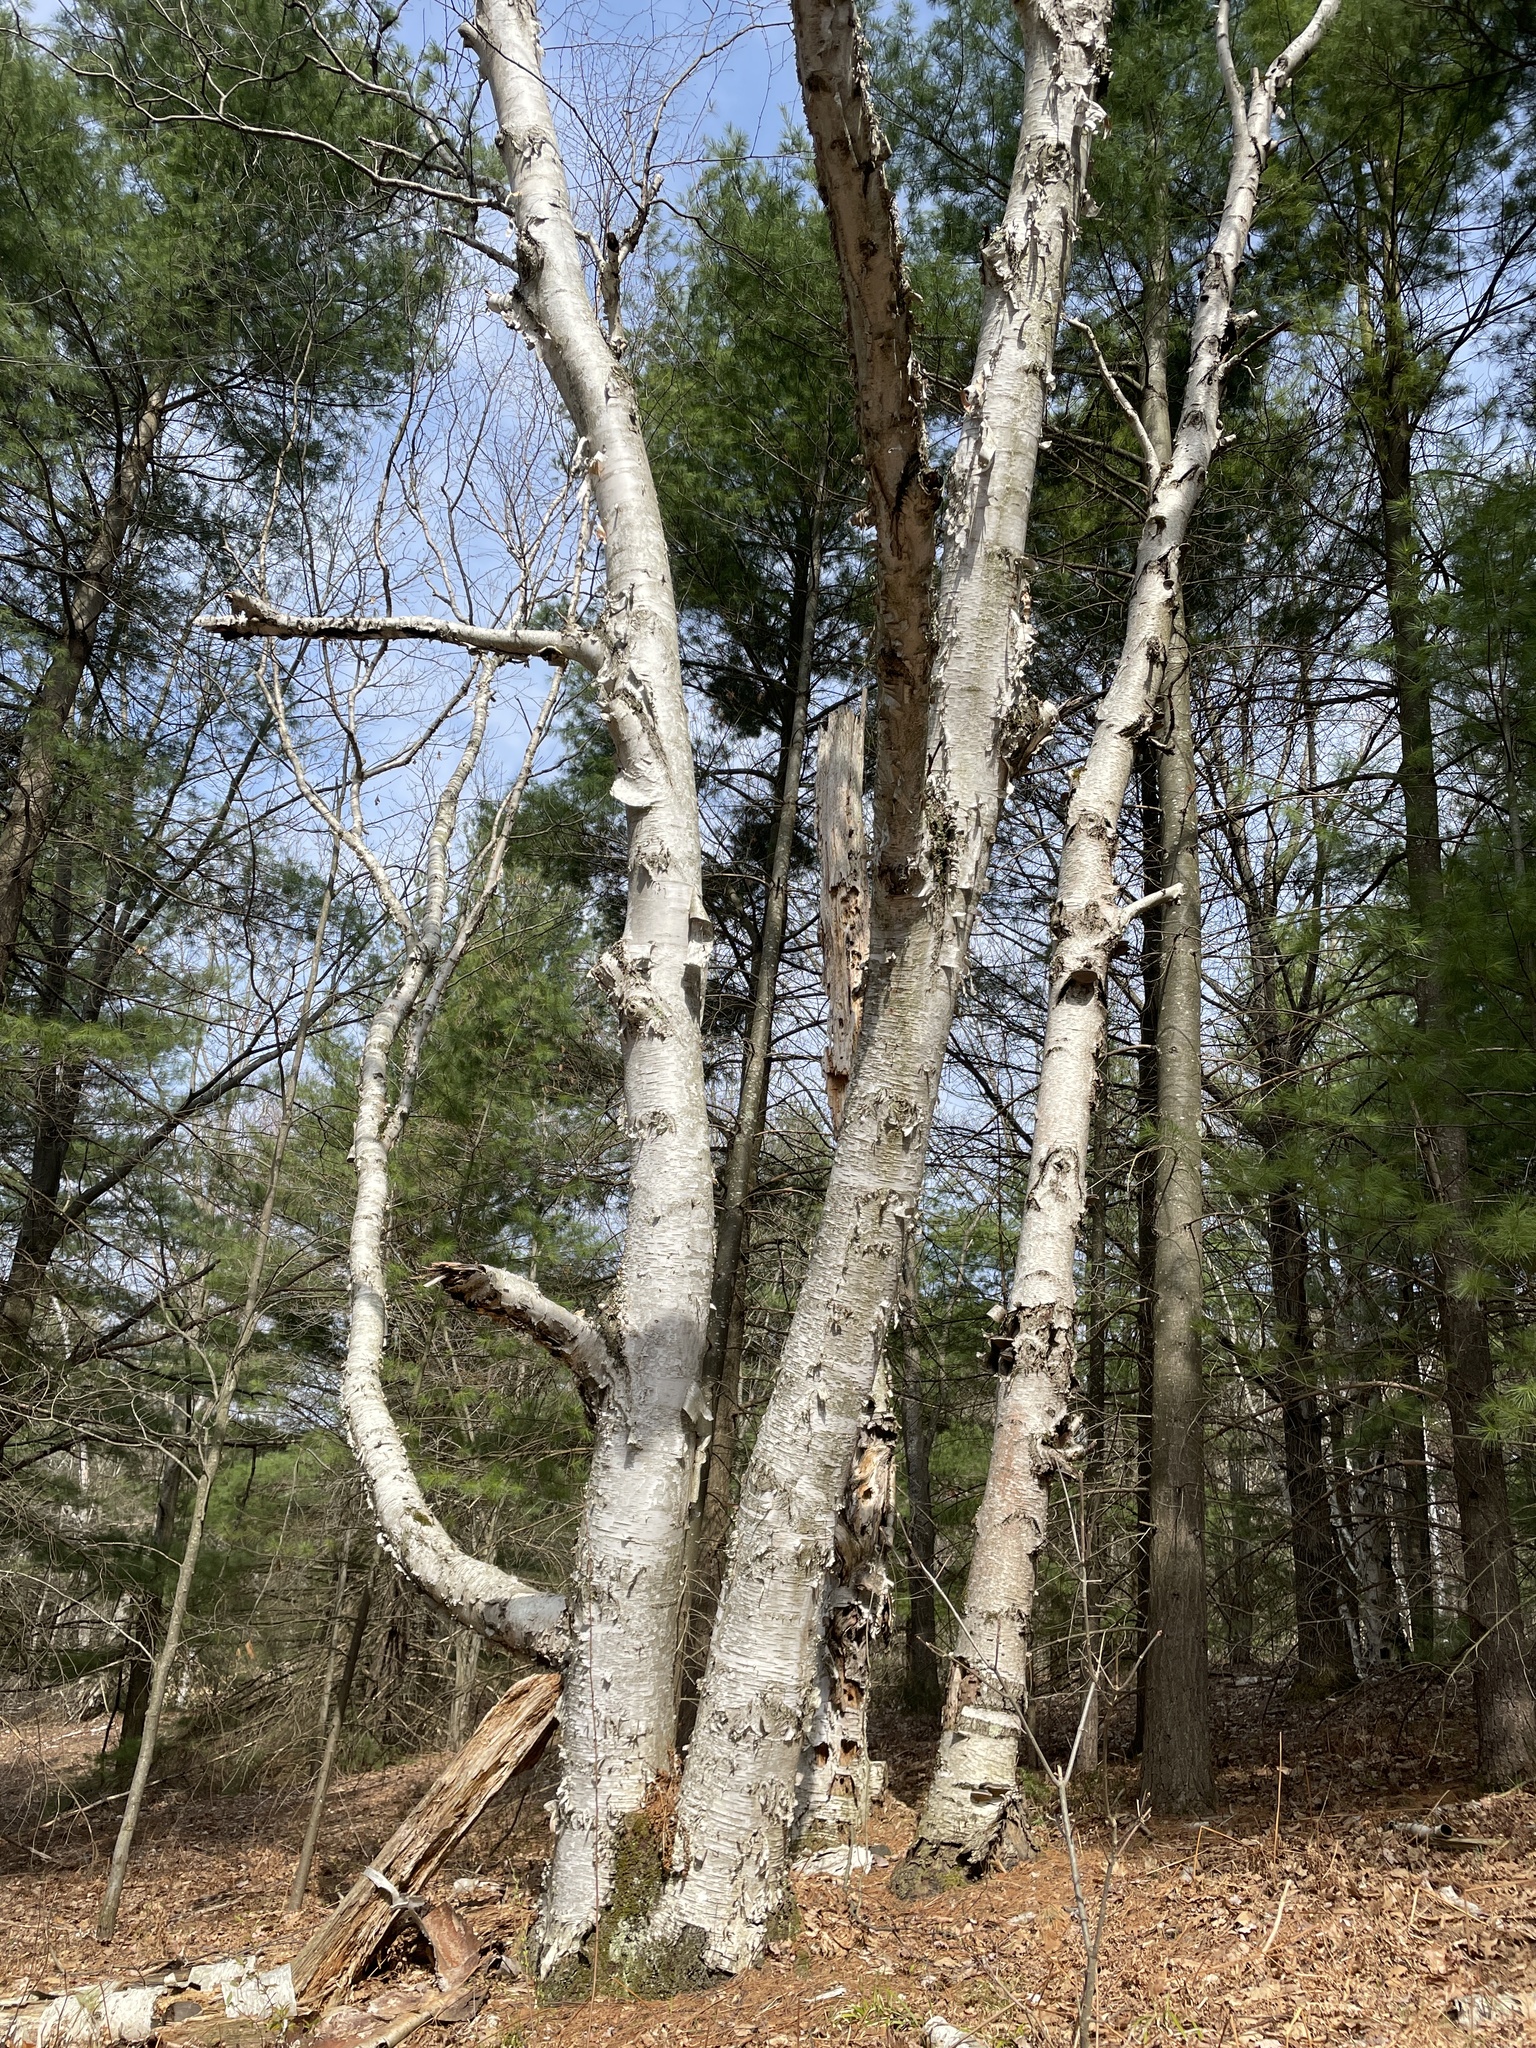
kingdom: Plantae
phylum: Tracheophyta
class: Magnoliopsida
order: Fagales
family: Betulaceae
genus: Betula
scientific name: Betula papyrifera
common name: Paper birch
